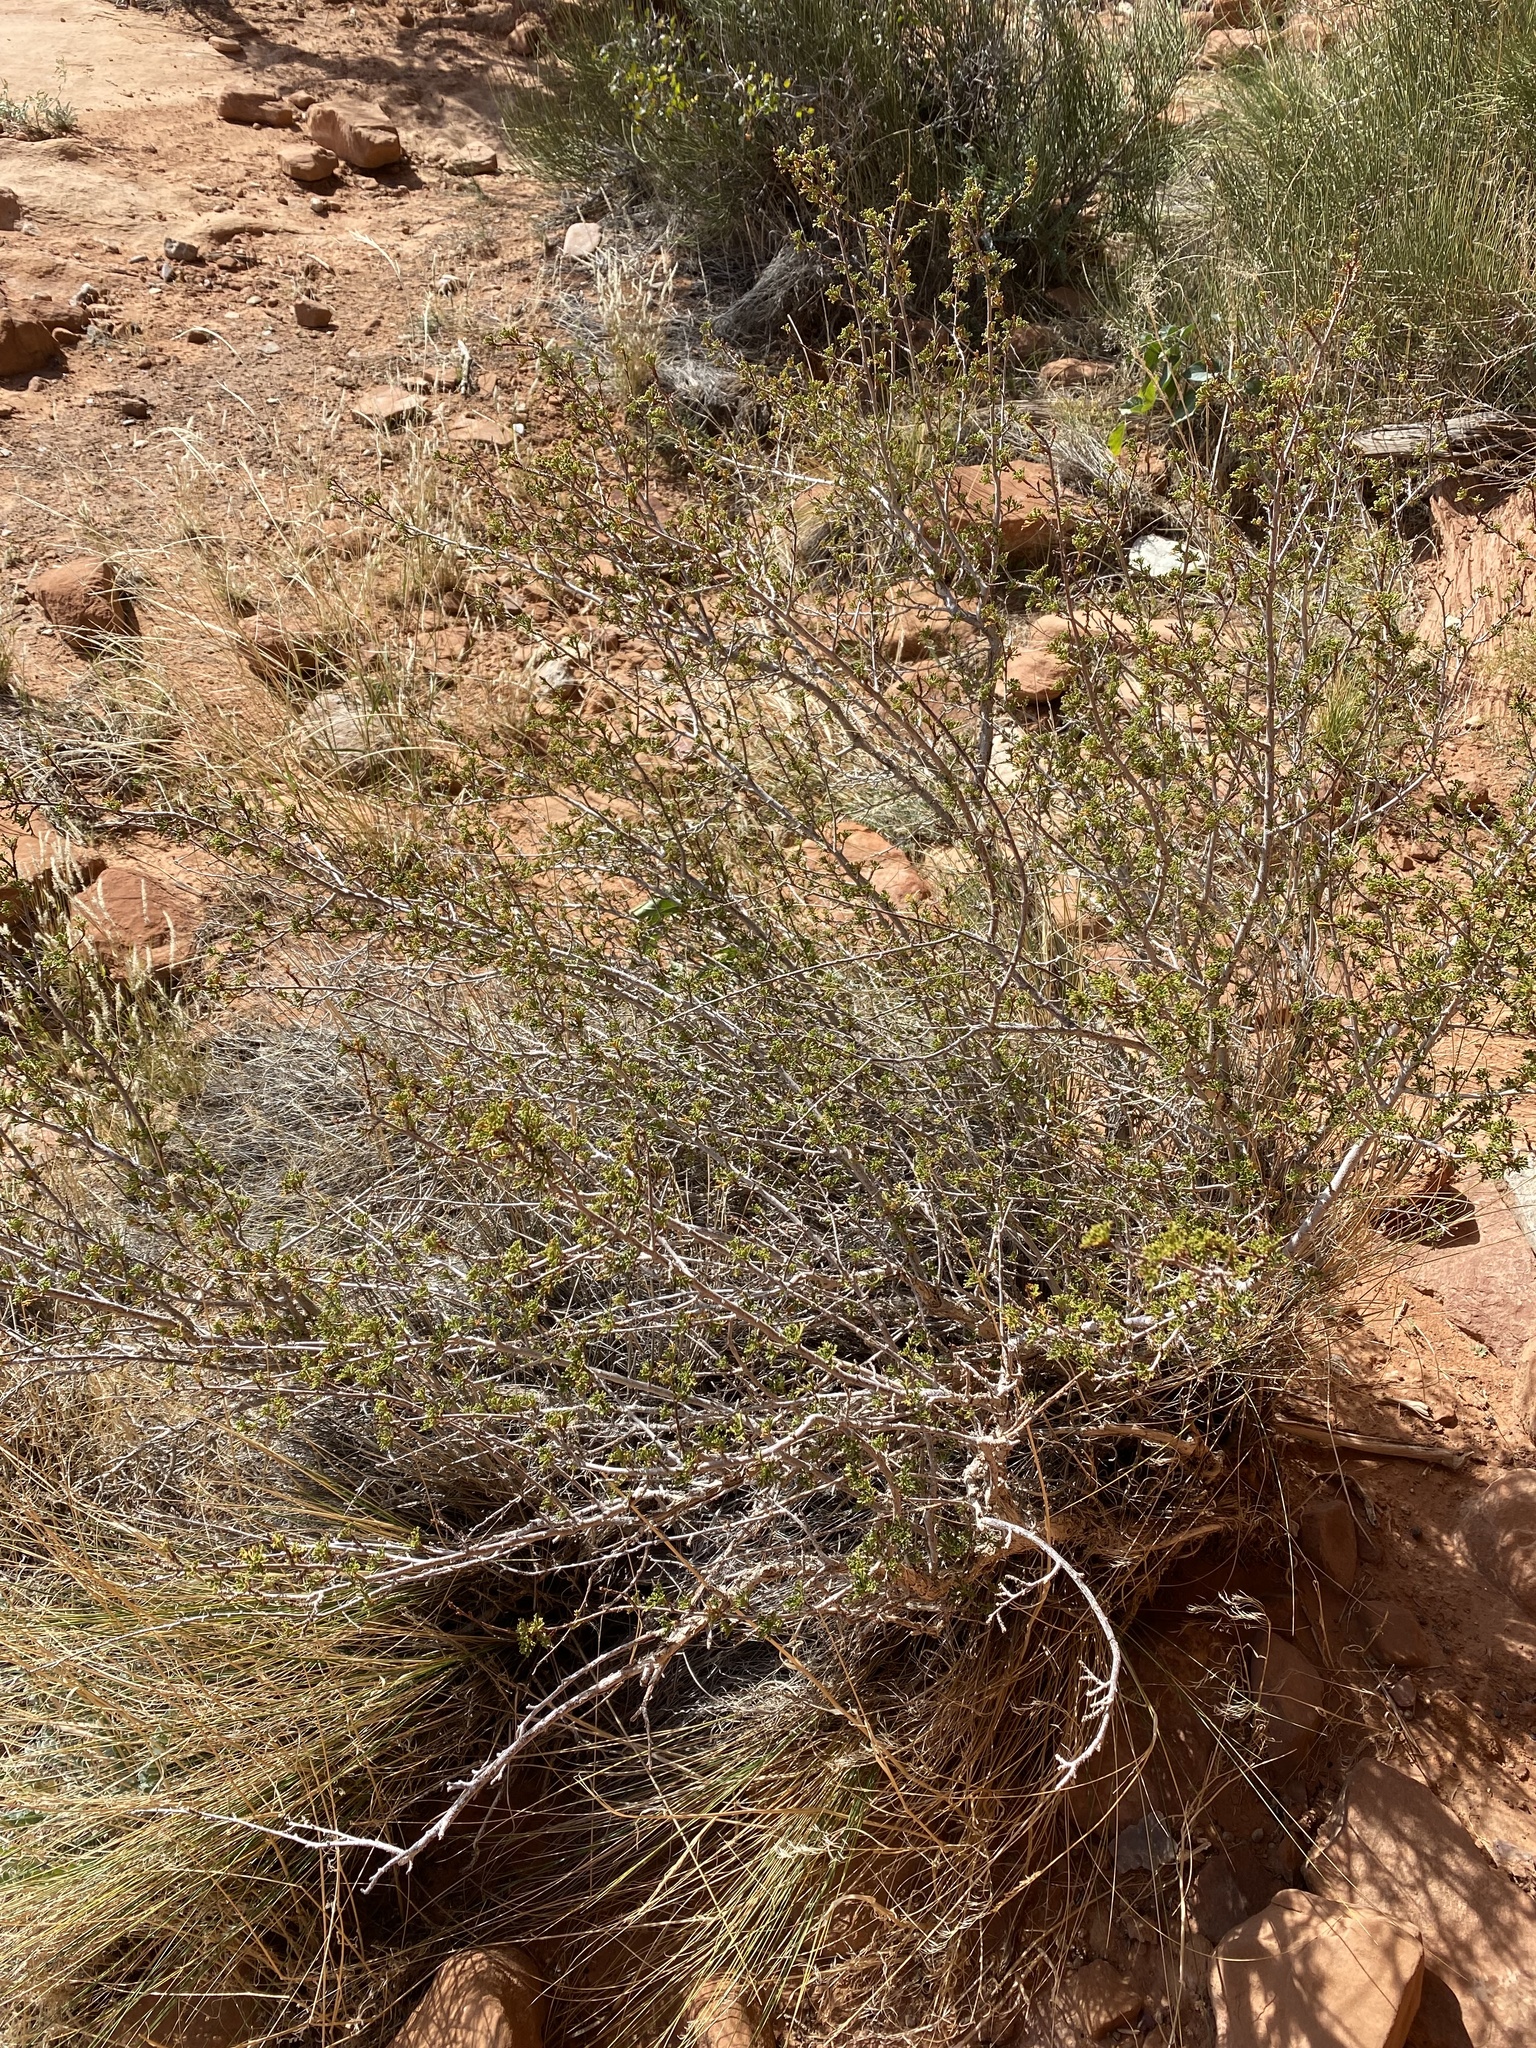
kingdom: Plantae
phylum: Tracheophyta
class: Magnoliopsida
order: Rosales
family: Rosaceae
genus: Purshia
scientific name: Purshia stansburiana
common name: Stansbury's cliffrose
